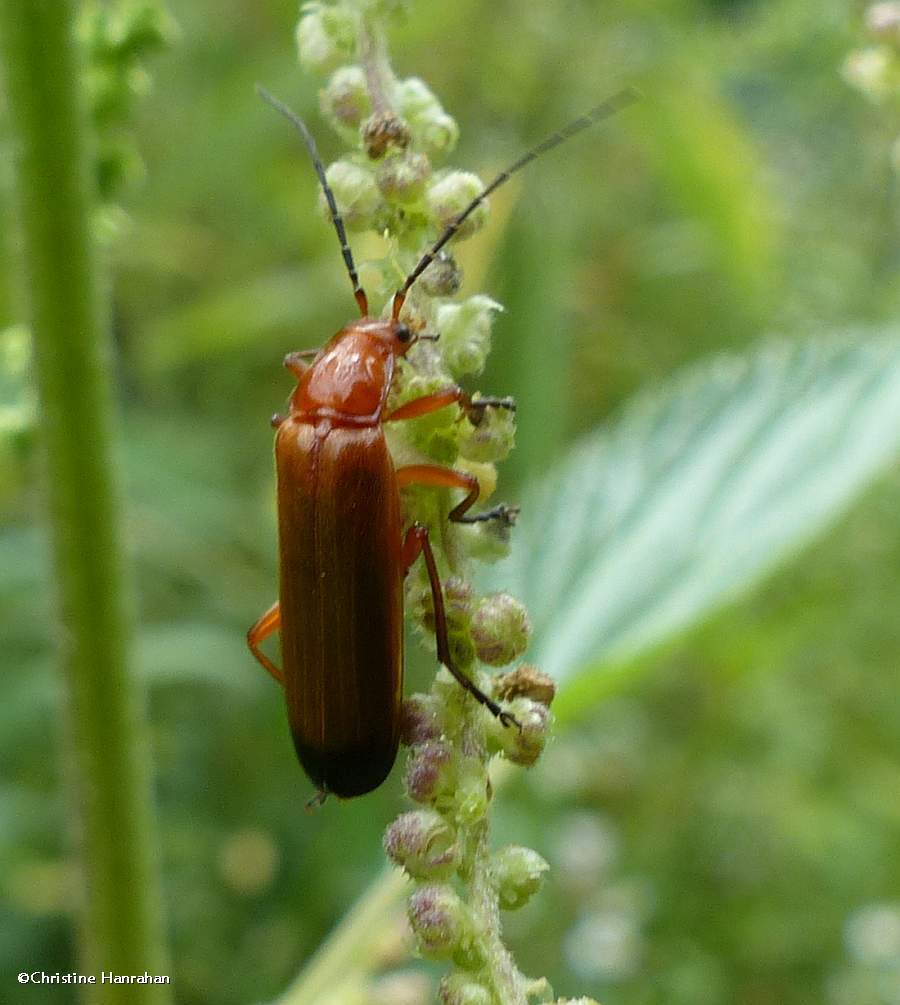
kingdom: Animalia
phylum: Arthropoda
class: Insecta
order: Coleoptera
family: Cantharidae
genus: Rhagonycha
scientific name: Rhagonycha fulva
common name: Common red soldier beetle
